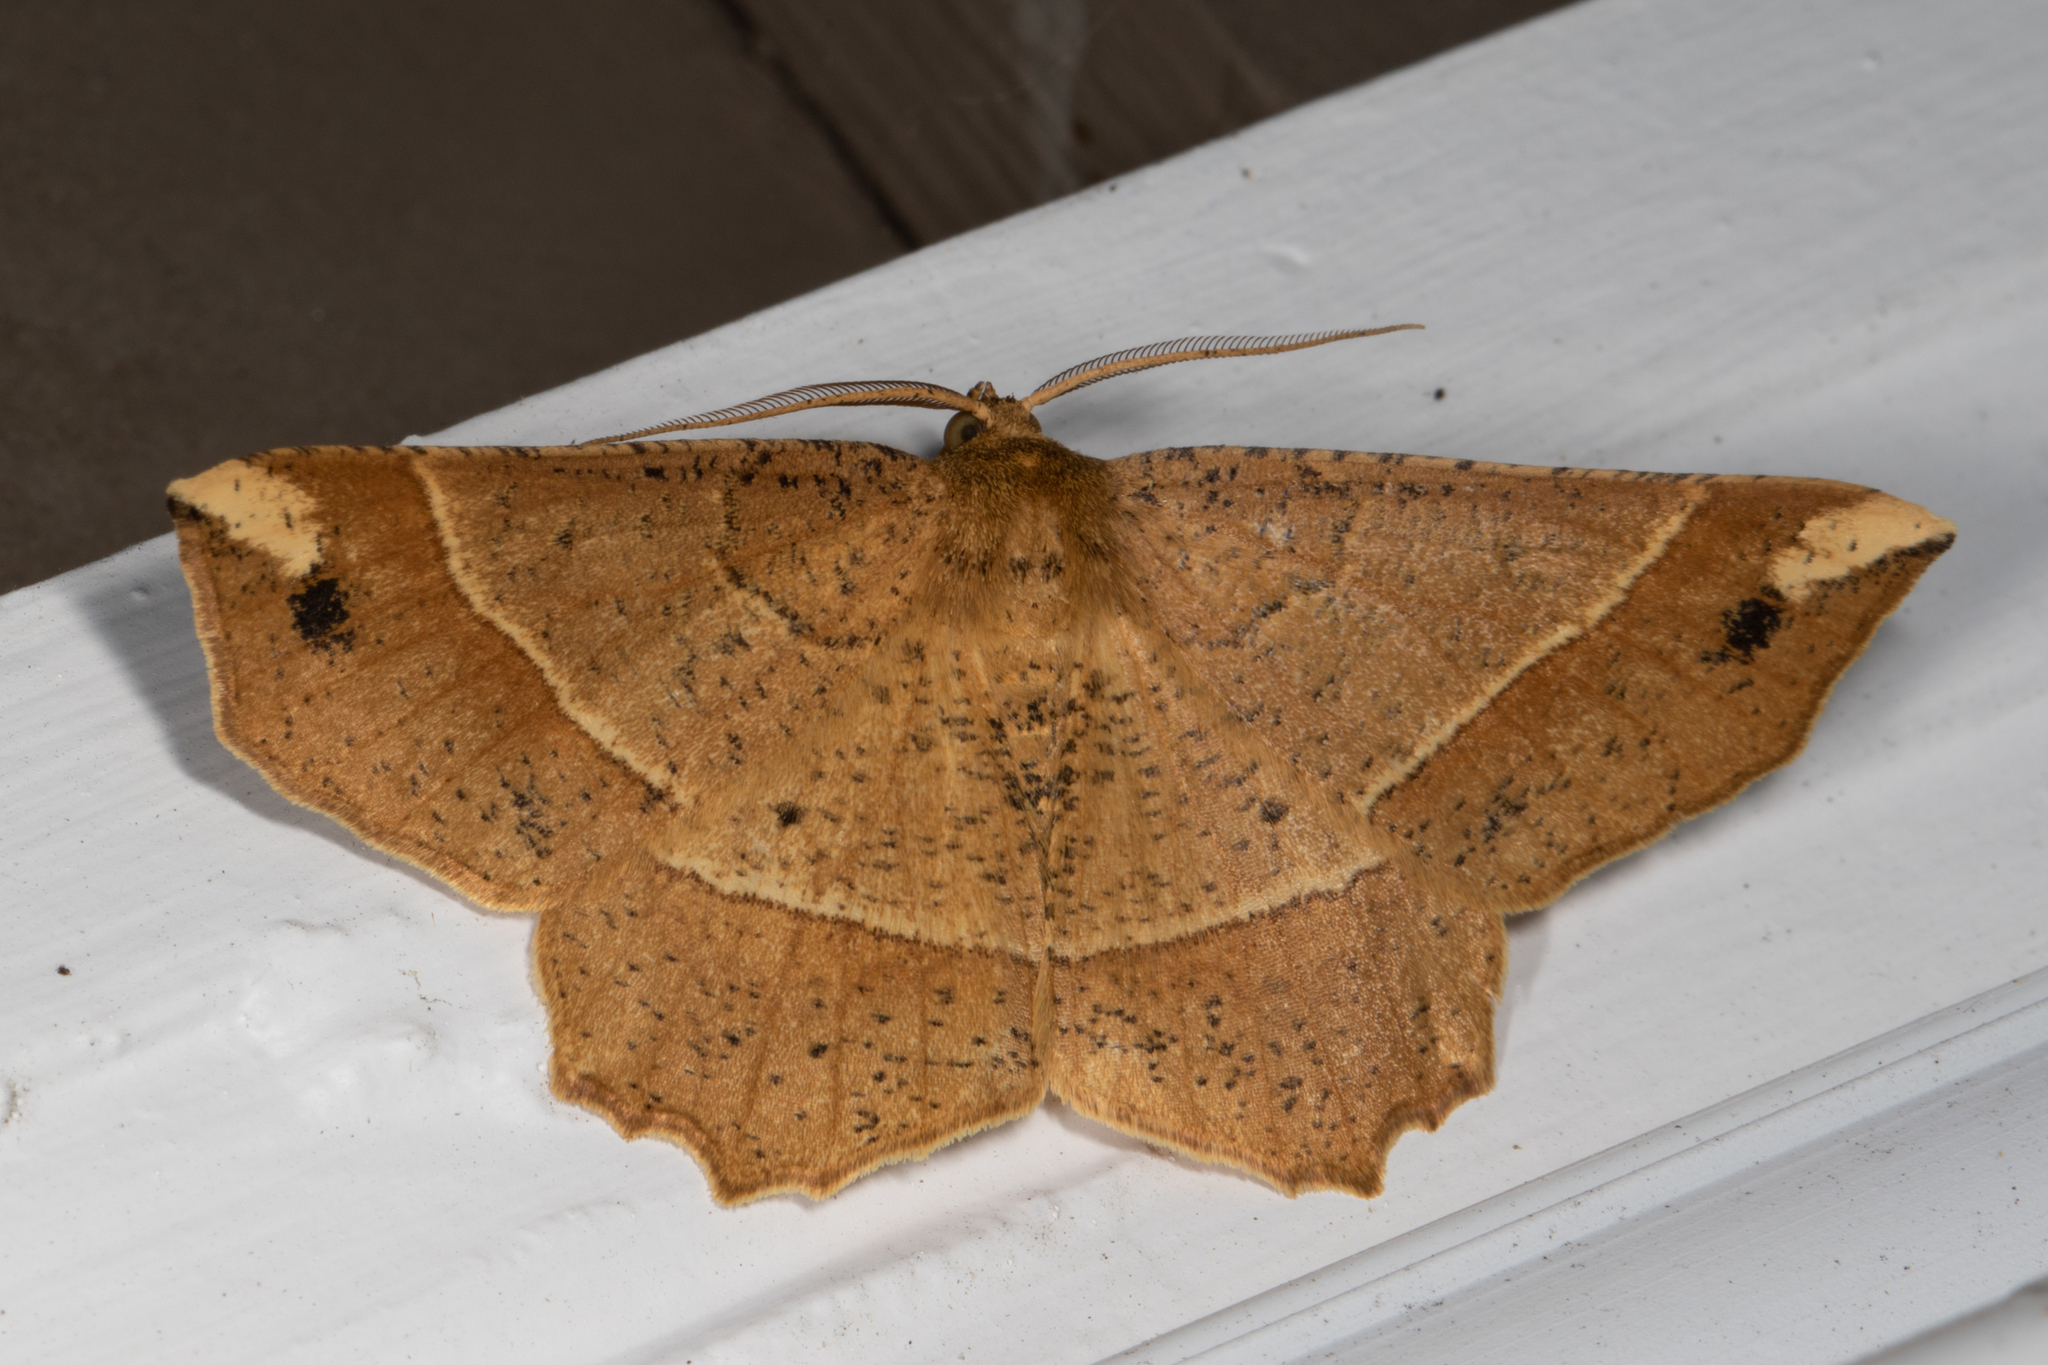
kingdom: Animalia
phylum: Arthropoda
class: Insecta
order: Lepidoptera
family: Geometridae
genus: Euchlaena
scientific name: Euchlaena tigrinaria
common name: Mottled euchlaena moth
